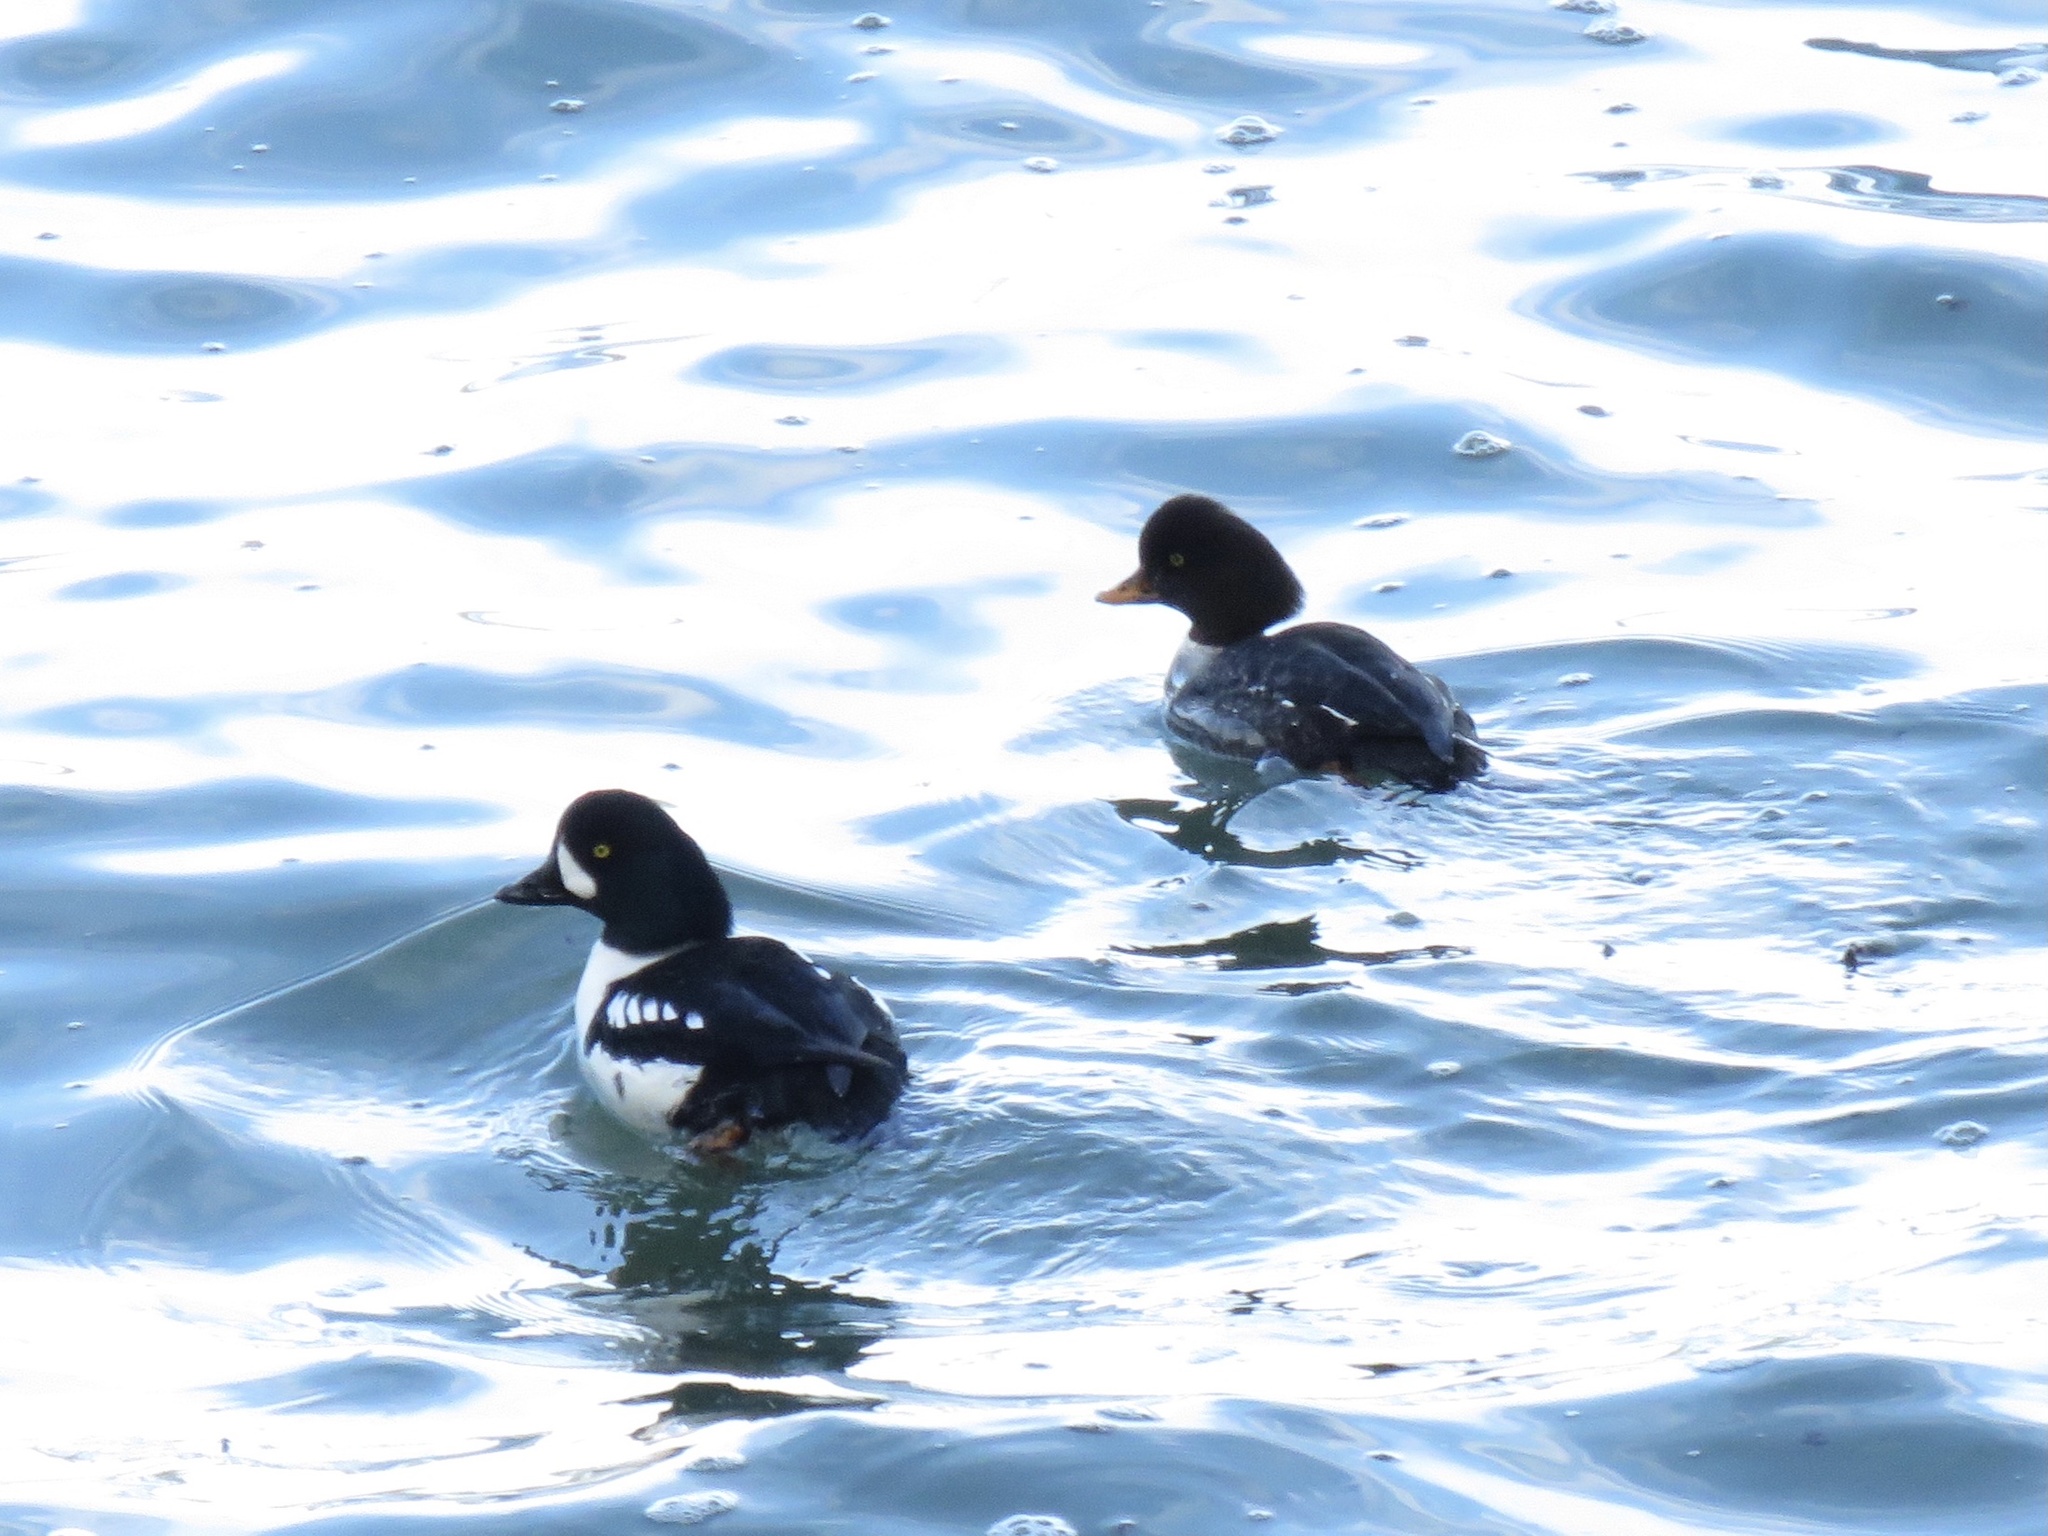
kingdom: Animalia
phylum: Chordata
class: Aves
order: Anseriformes
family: Anatidae
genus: Bucephala
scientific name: Bucephala islandica
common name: Barrow's goldeneye
